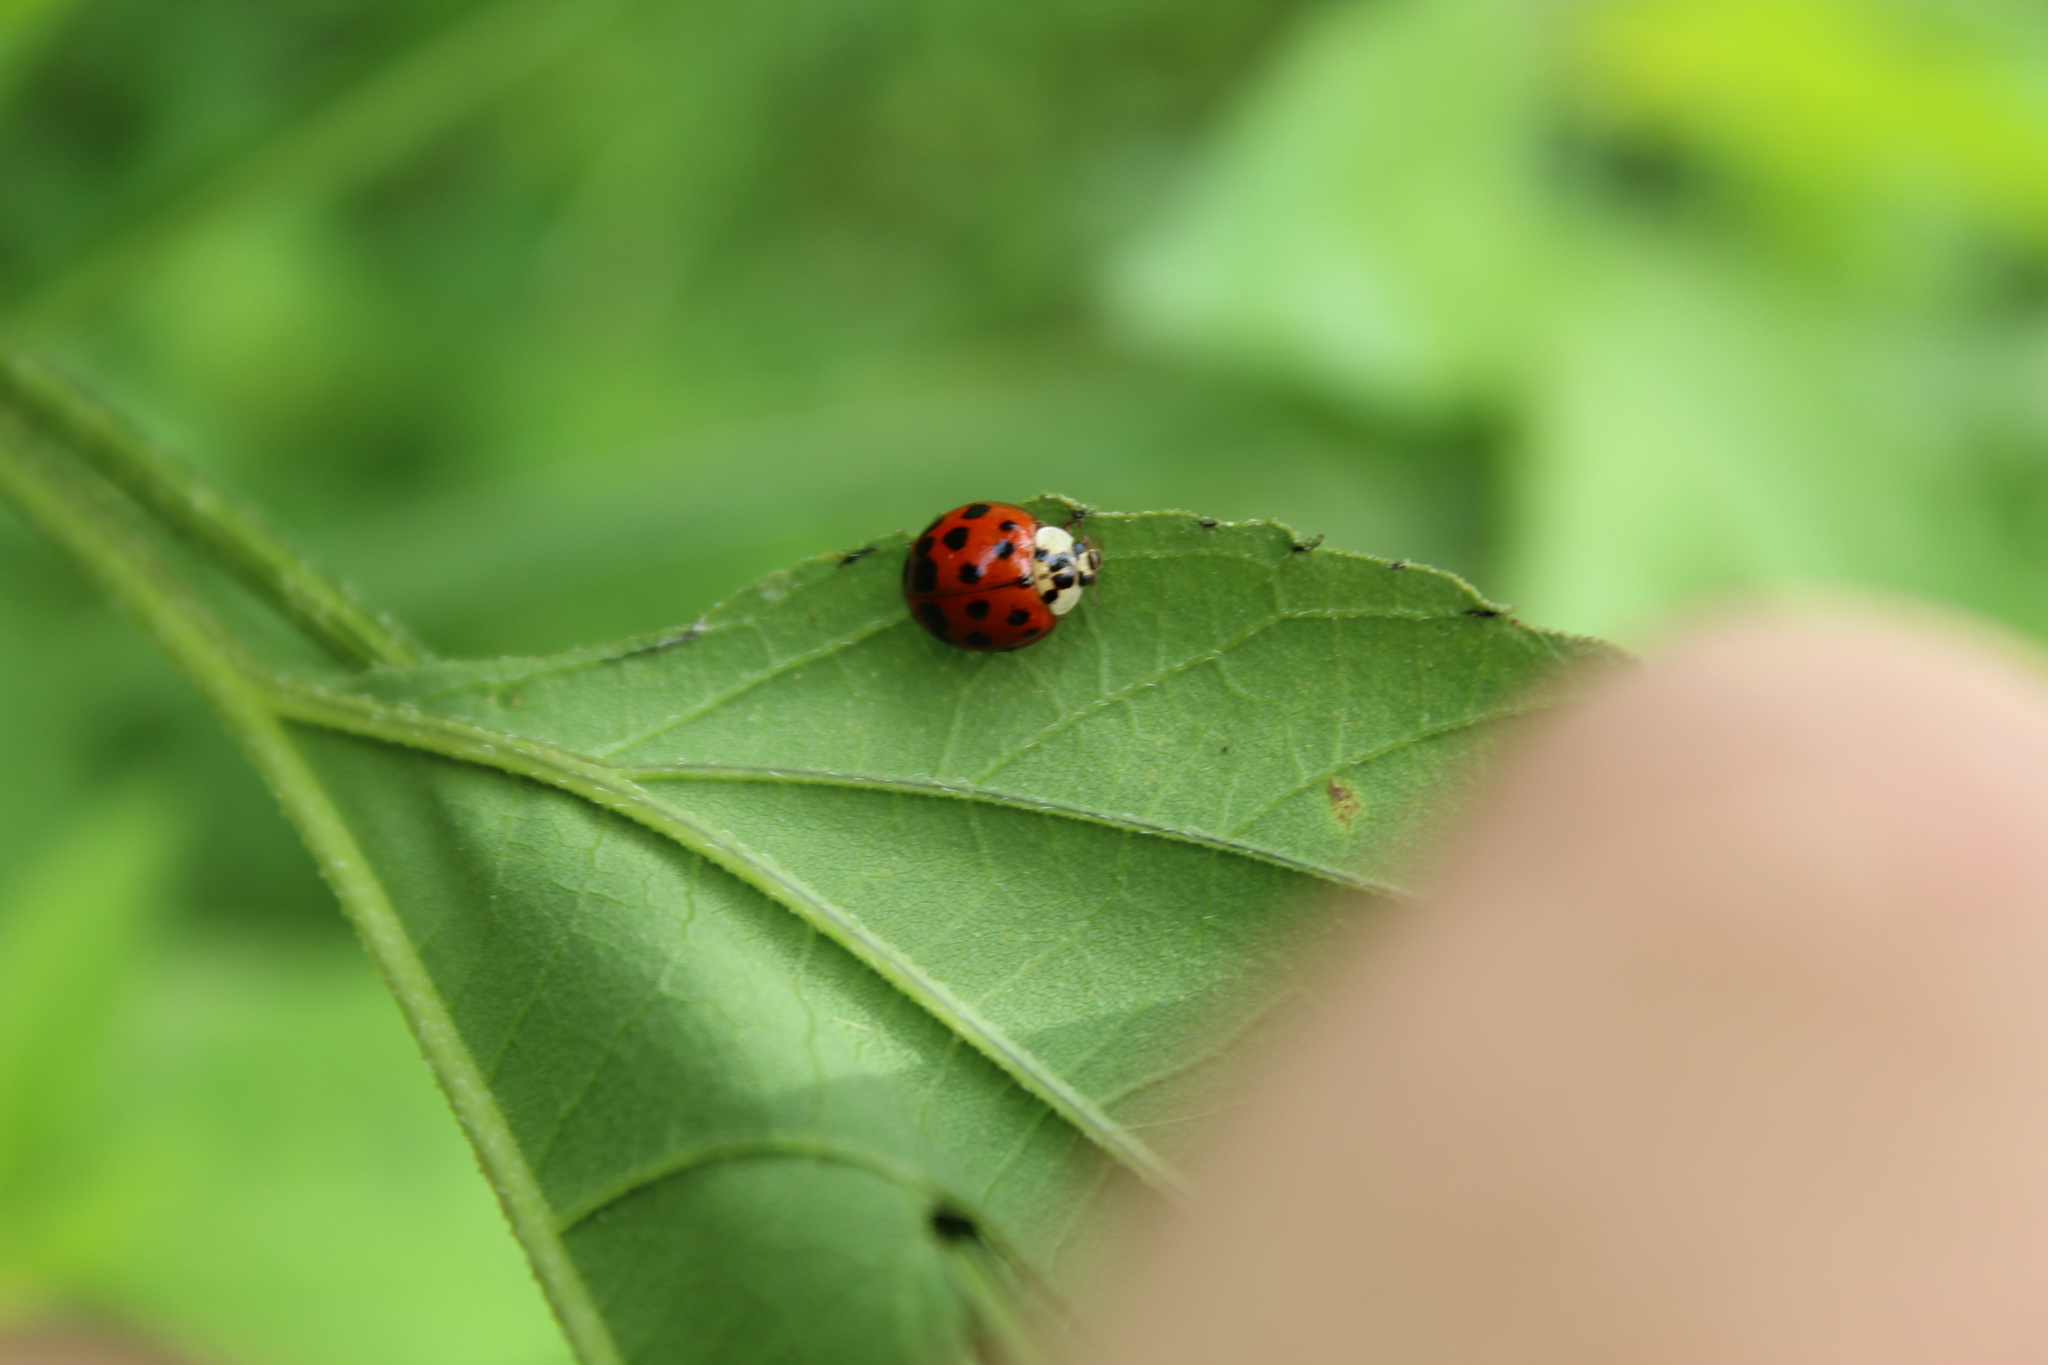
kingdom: Animalia
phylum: Arthropoda
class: Insecta
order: Coleoptera
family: Coccinellidae
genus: Harmonia
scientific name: Harmonia axyridis
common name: Harlequin ladybird
